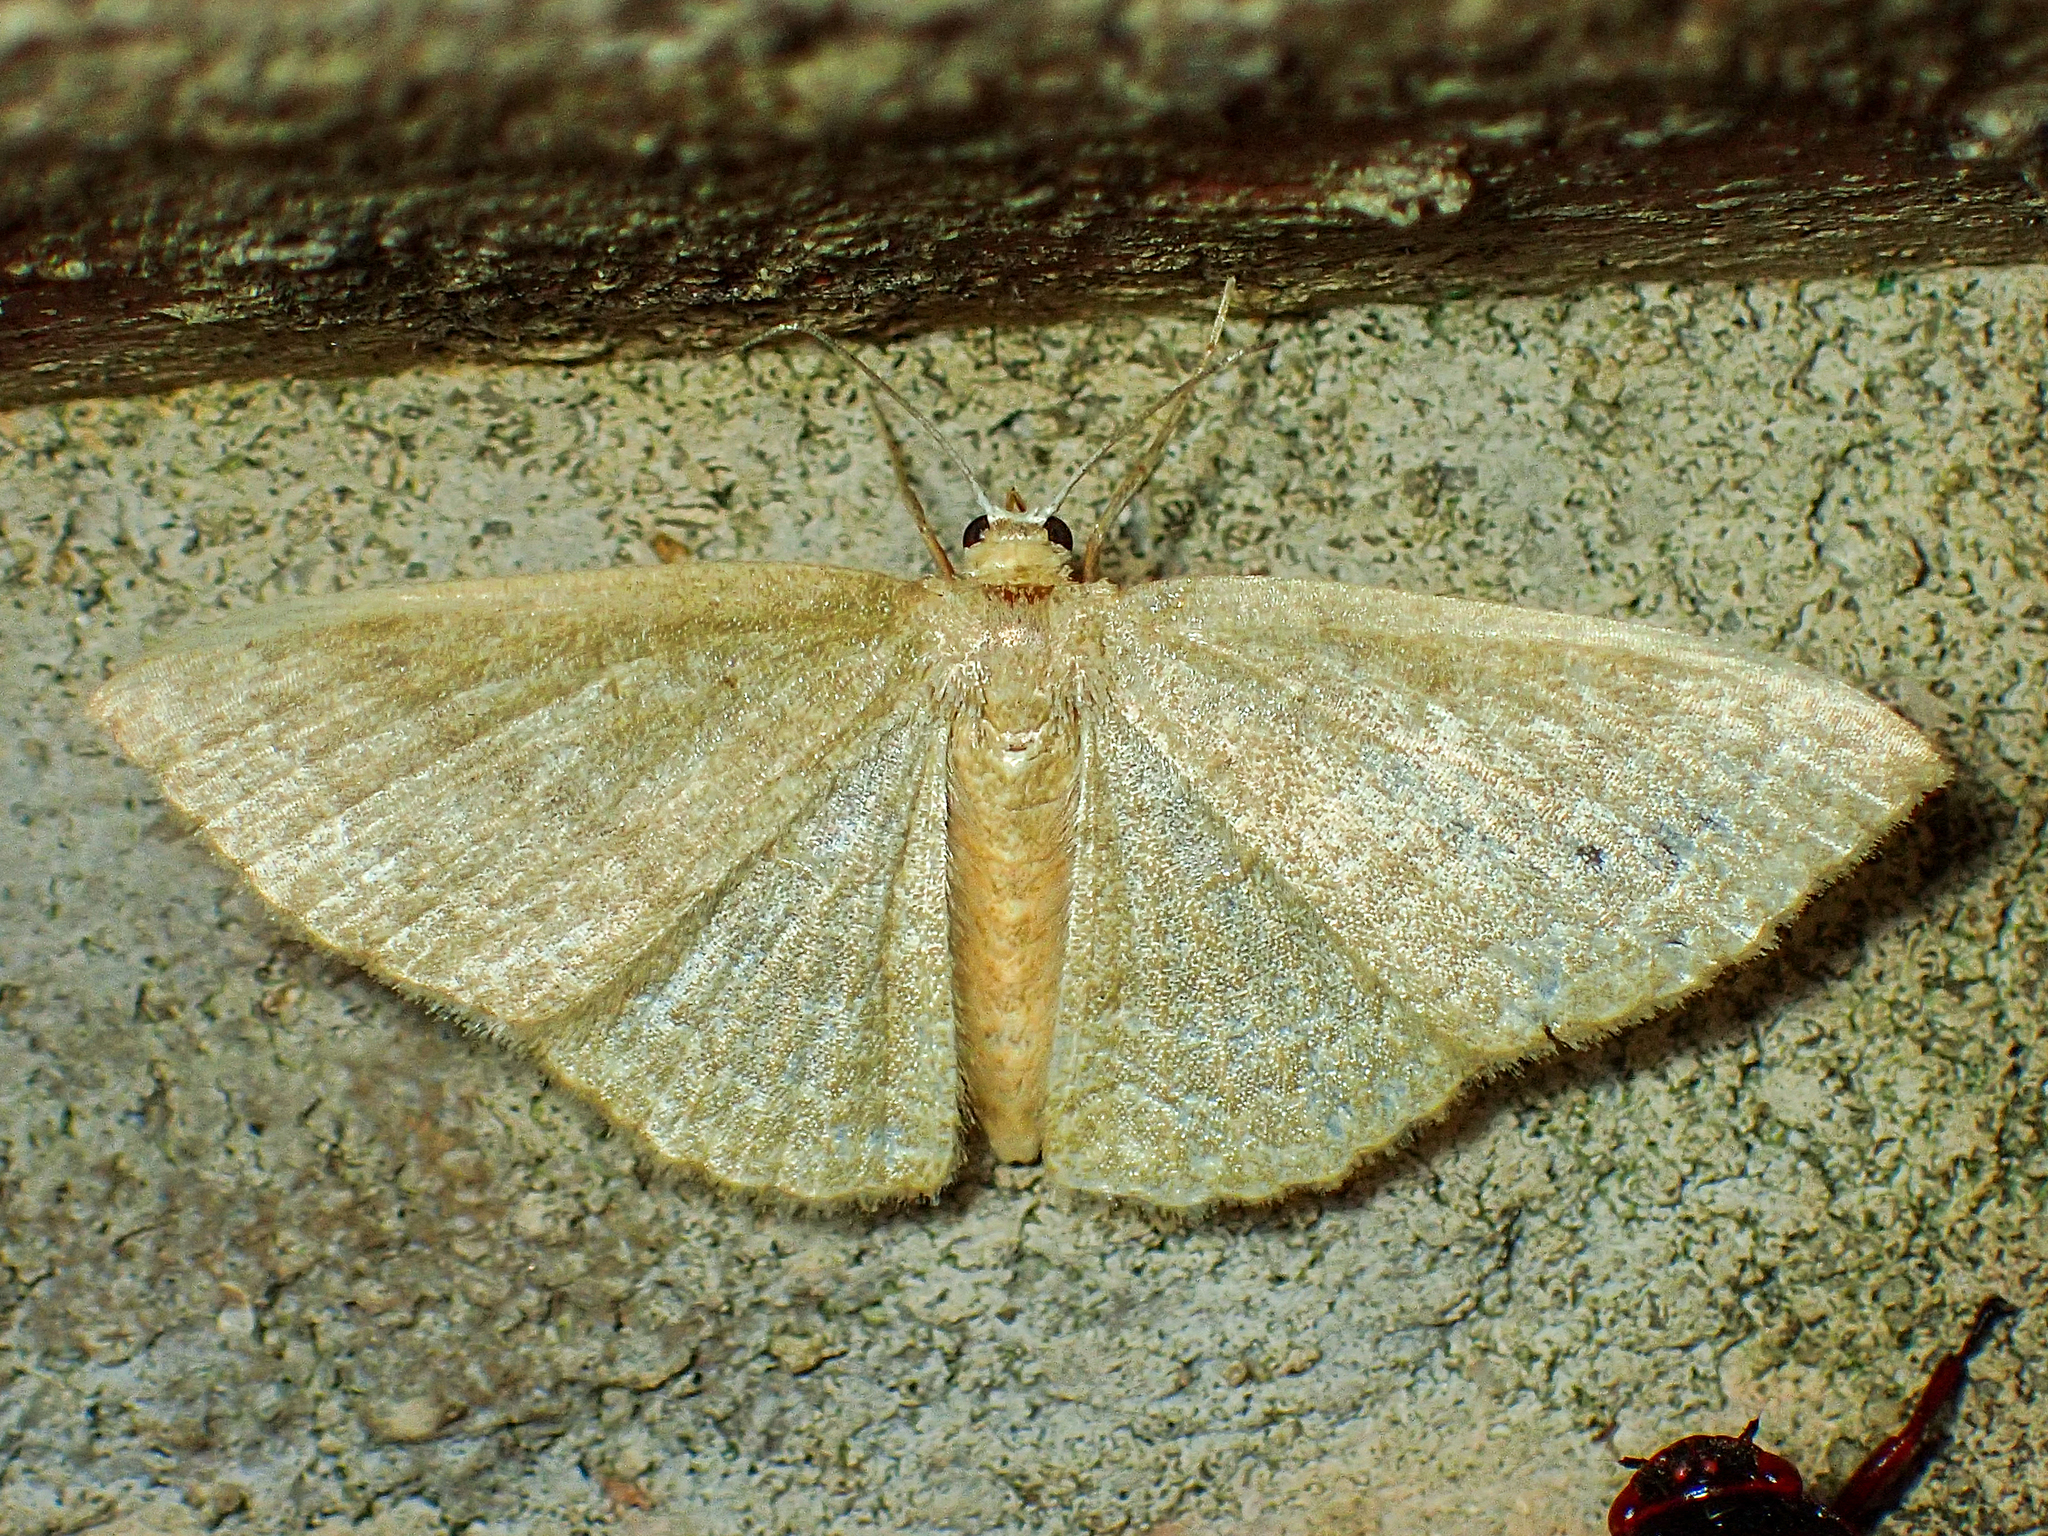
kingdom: Animalia
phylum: Arthropoda
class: Insecta
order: Lepidoptera
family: Geometridae
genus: Pleuroprucha
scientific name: Pleuroprucha insulsaria
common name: Common tan wave
